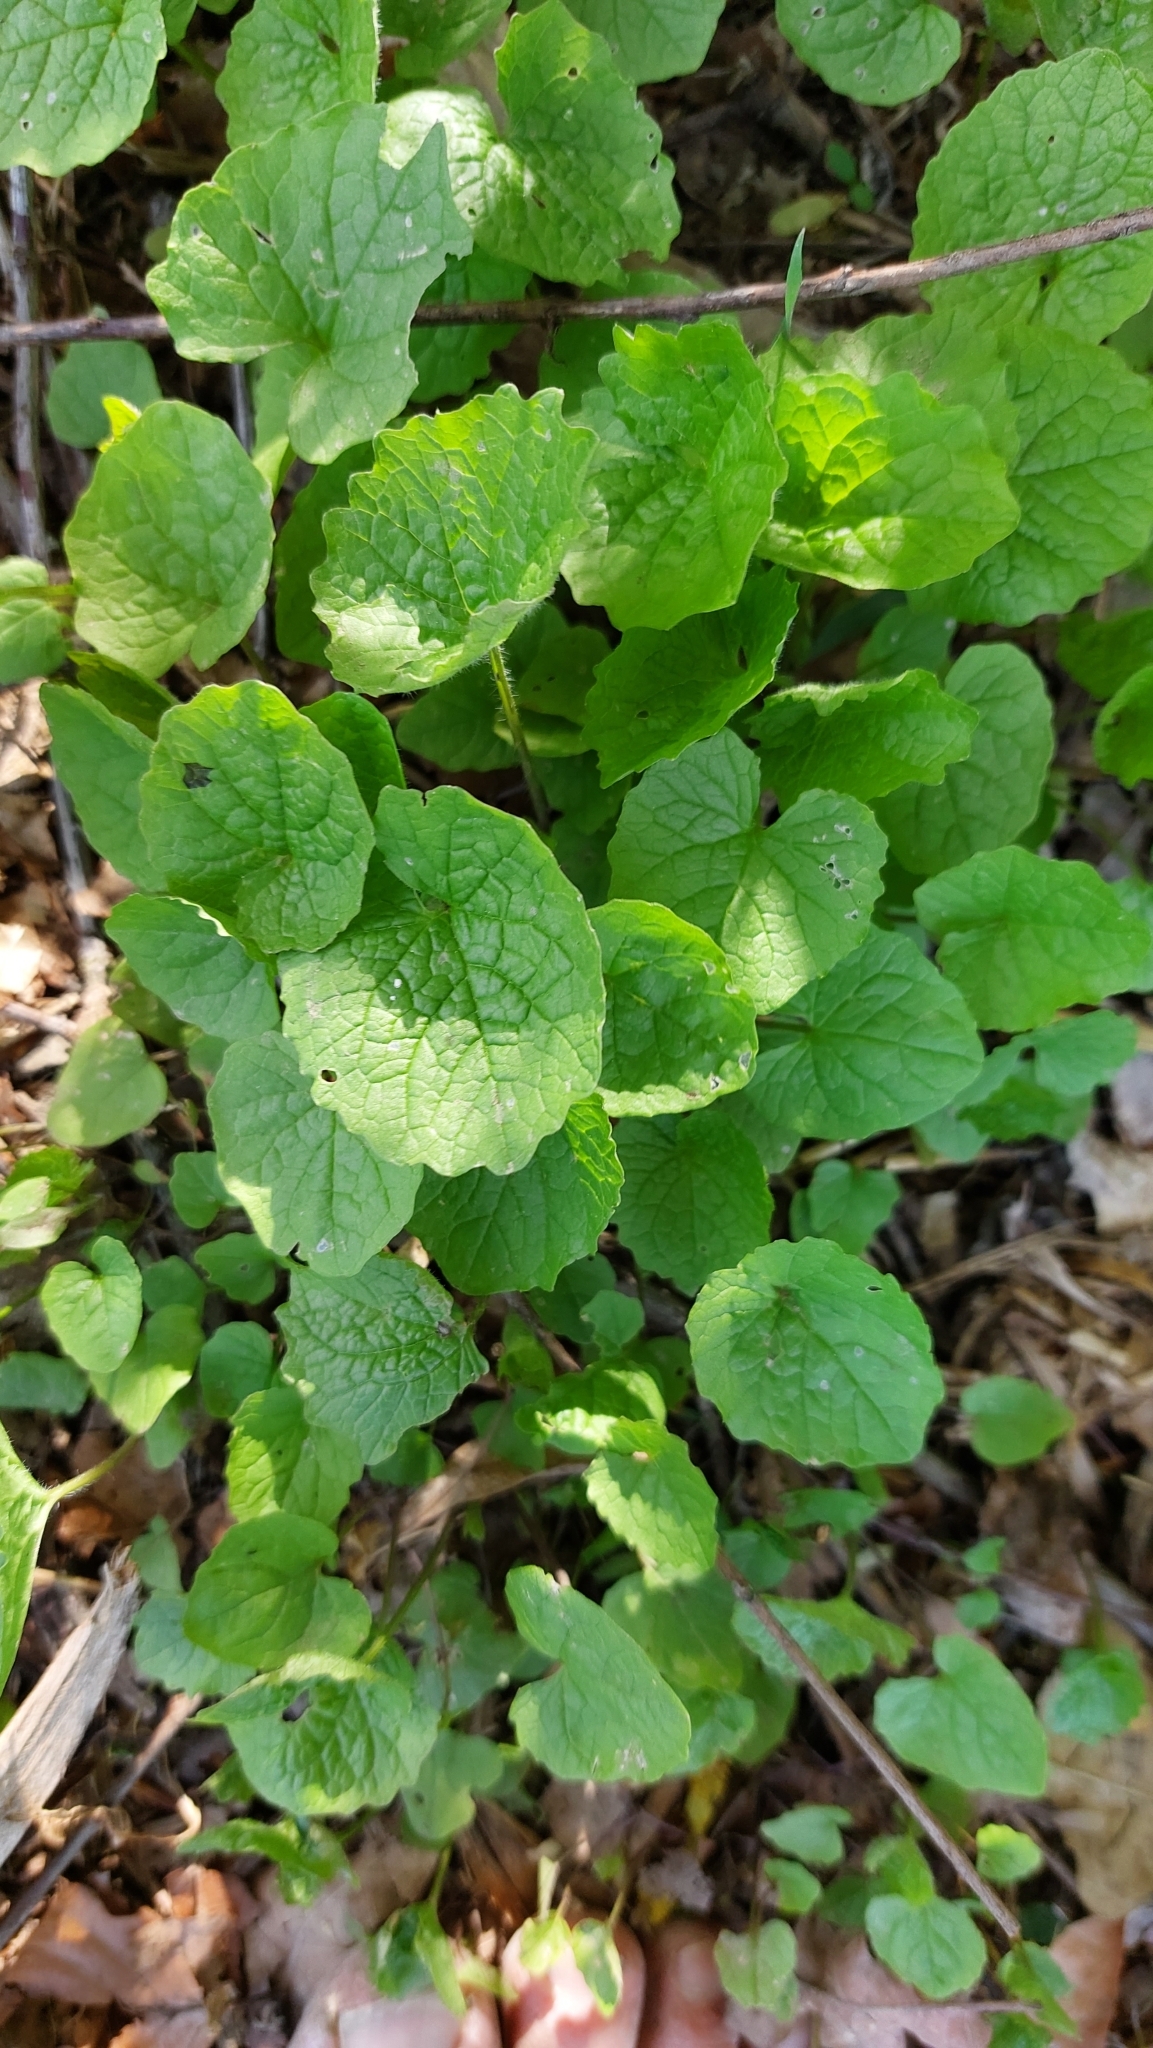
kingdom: Plantae
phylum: Tracheophyta
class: Magnoliopsida
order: Brassicales
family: Brassicaceae
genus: Alliaria
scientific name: Alliaria petiolata
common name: Garlic mustard
